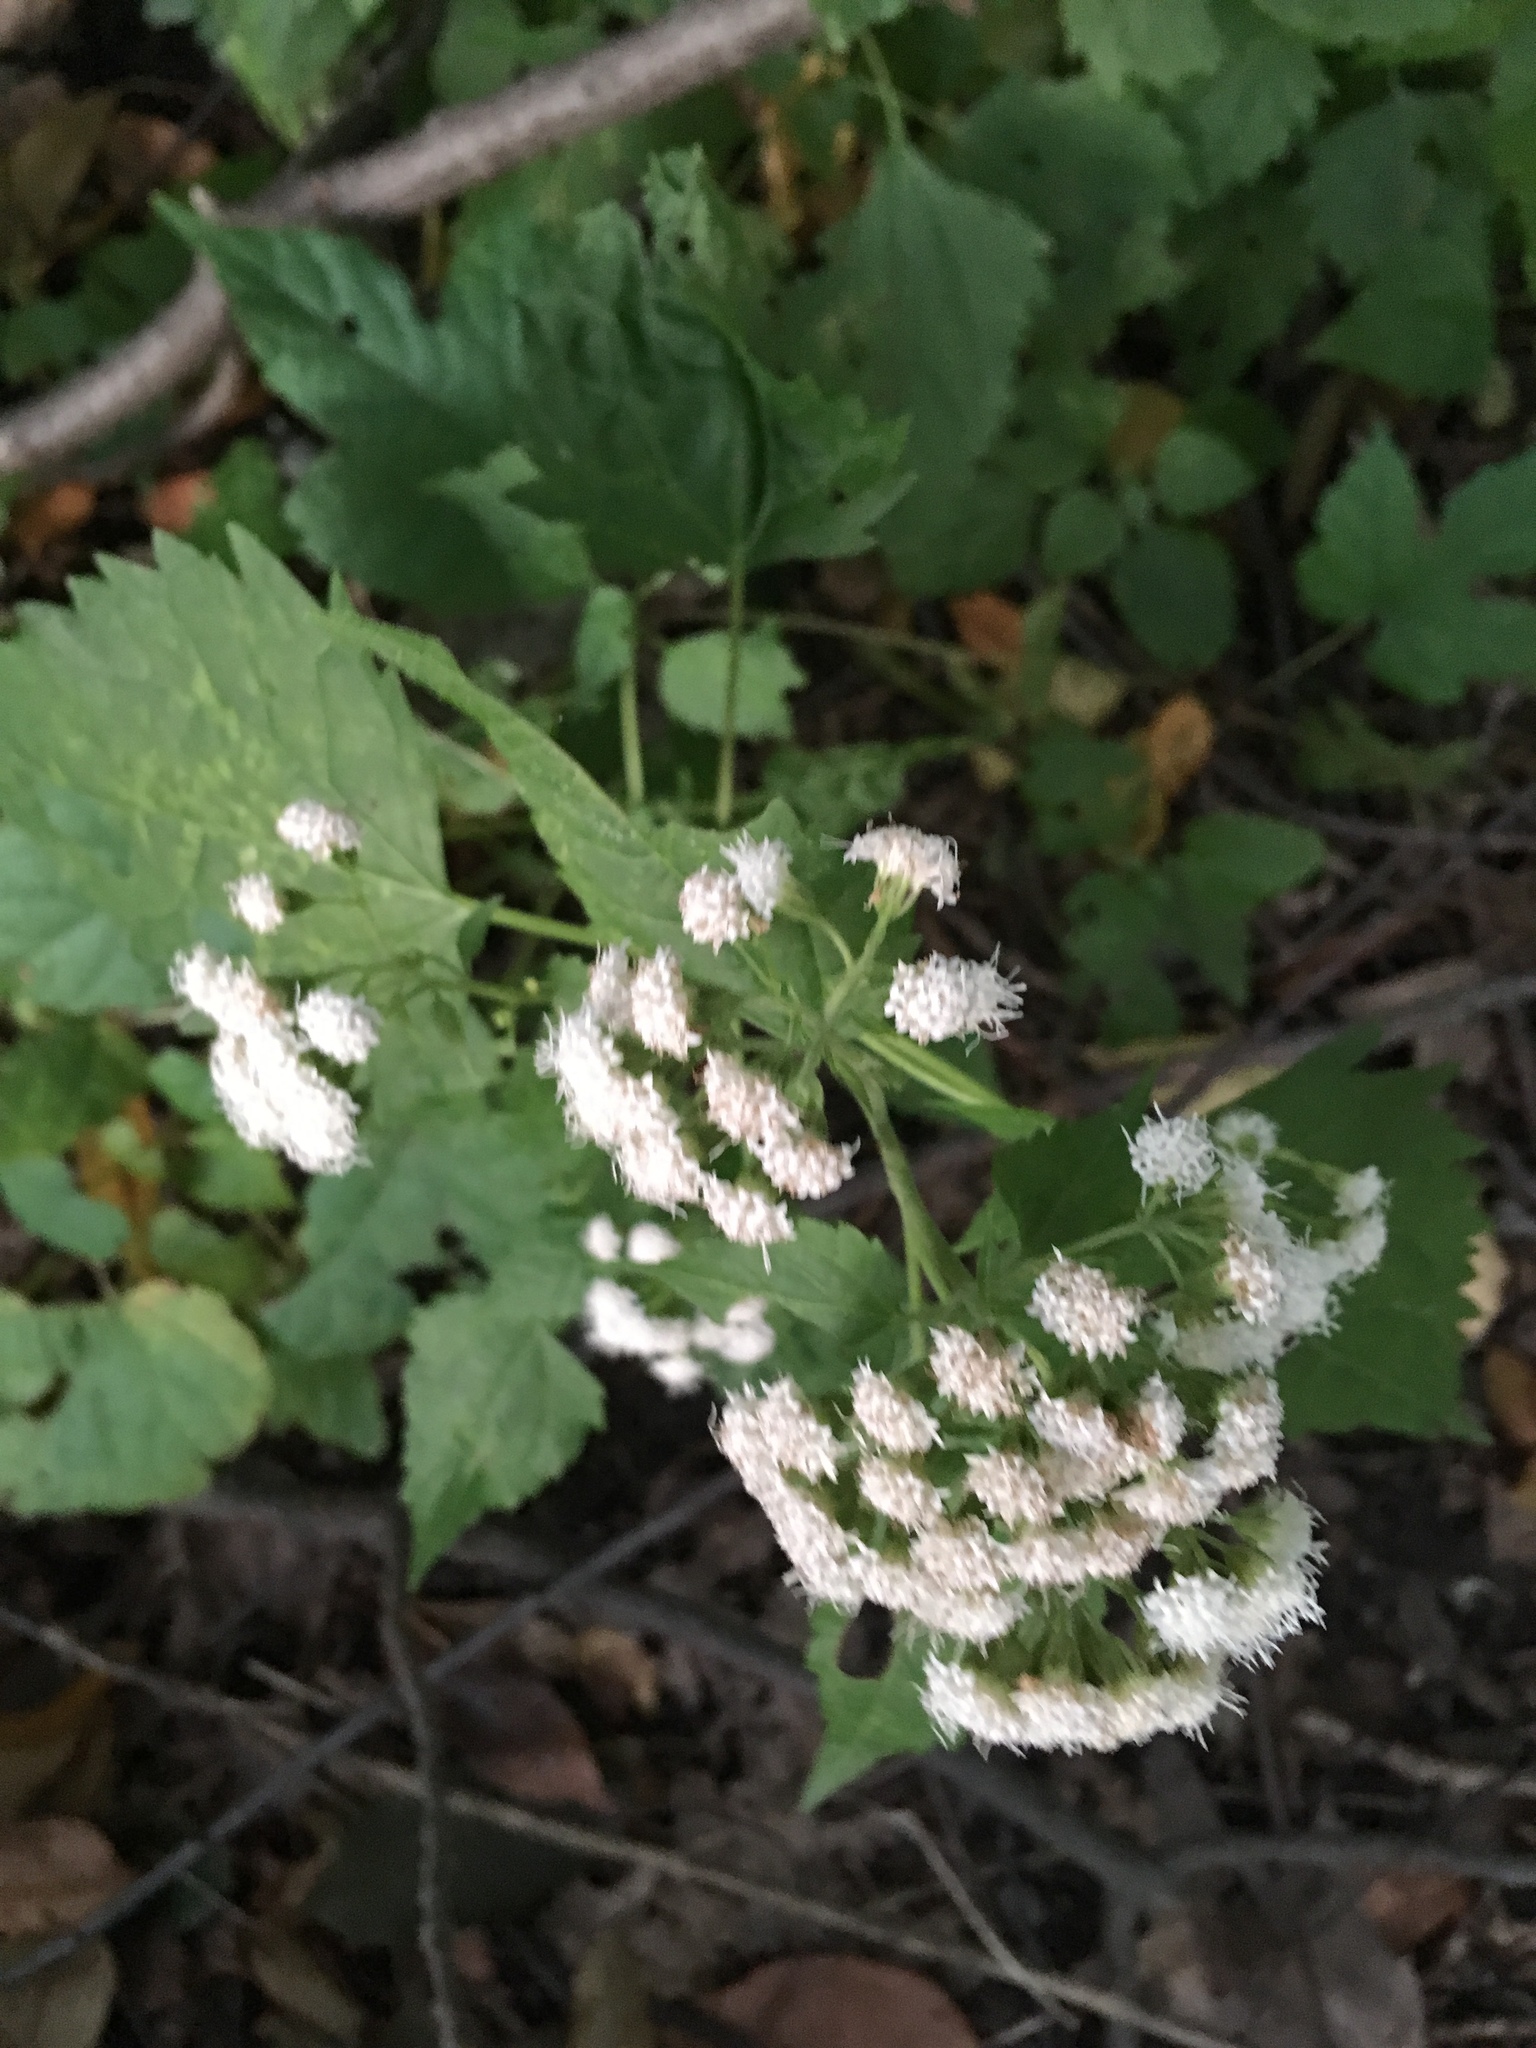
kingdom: Plantae
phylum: Tracheophyta
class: Magnoliopsida
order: Asterales
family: Asteraceae
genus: Ageratina
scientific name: Ageratina altissima
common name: White snakeroot
